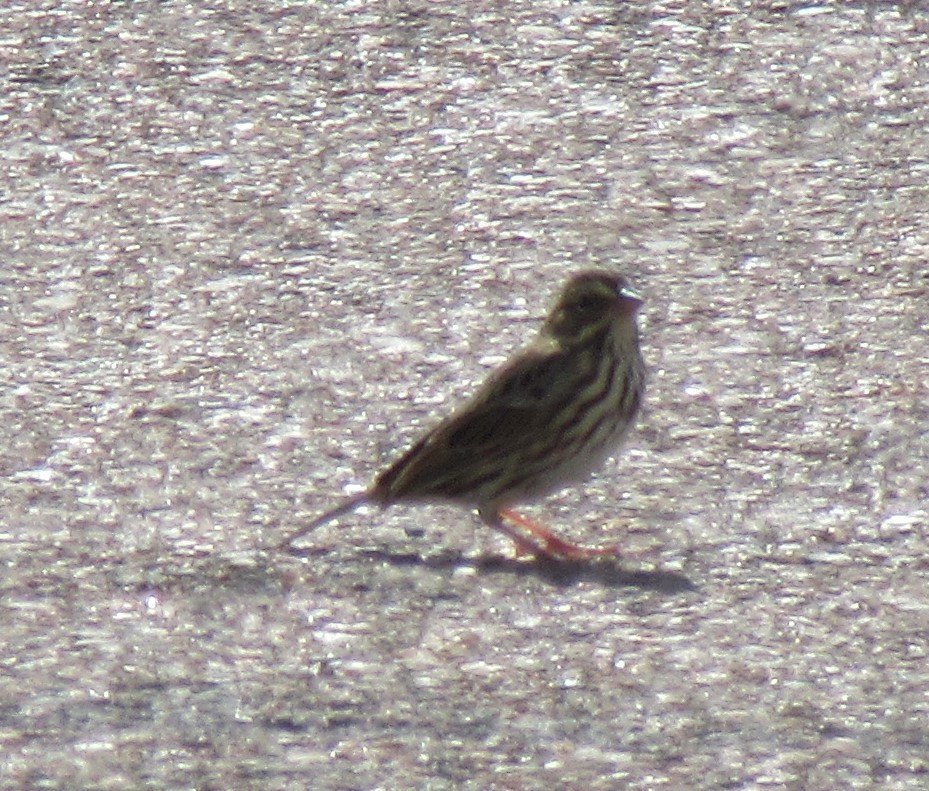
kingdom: Animalia
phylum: Chordata
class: Aves
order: Passeriformes
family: Passerellidae
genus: Passerculus
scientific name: Passerculus sandwichensis
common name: Savannah sparrow
